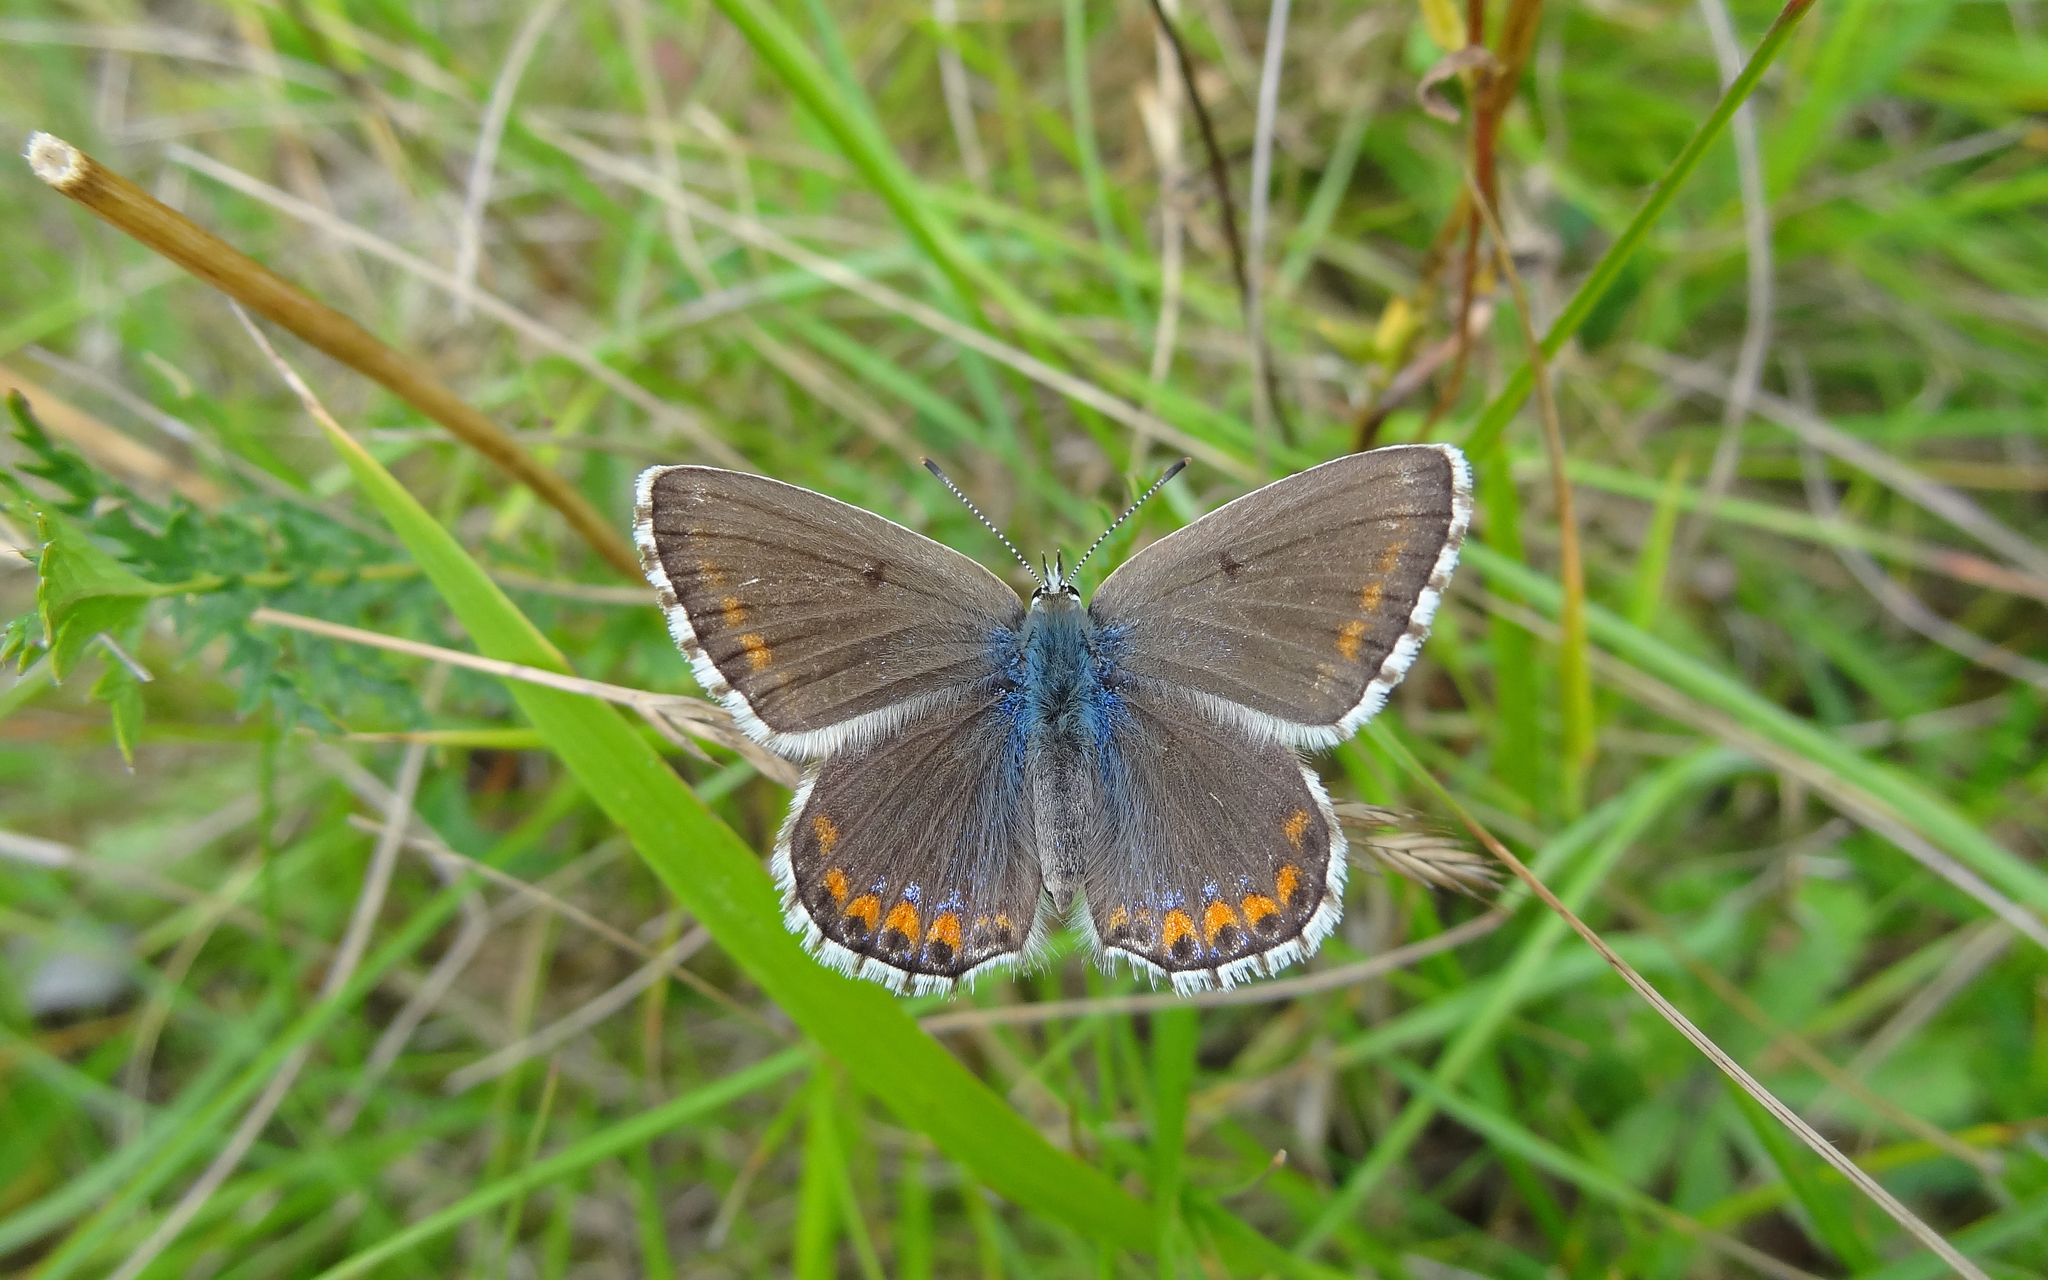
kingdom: Animalia
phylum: Arthropoda
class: Insecta
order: Lepidoptera
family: Lycaenidae
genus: Lysandra
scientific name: Lysandra bellargus
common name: Adonis blue
